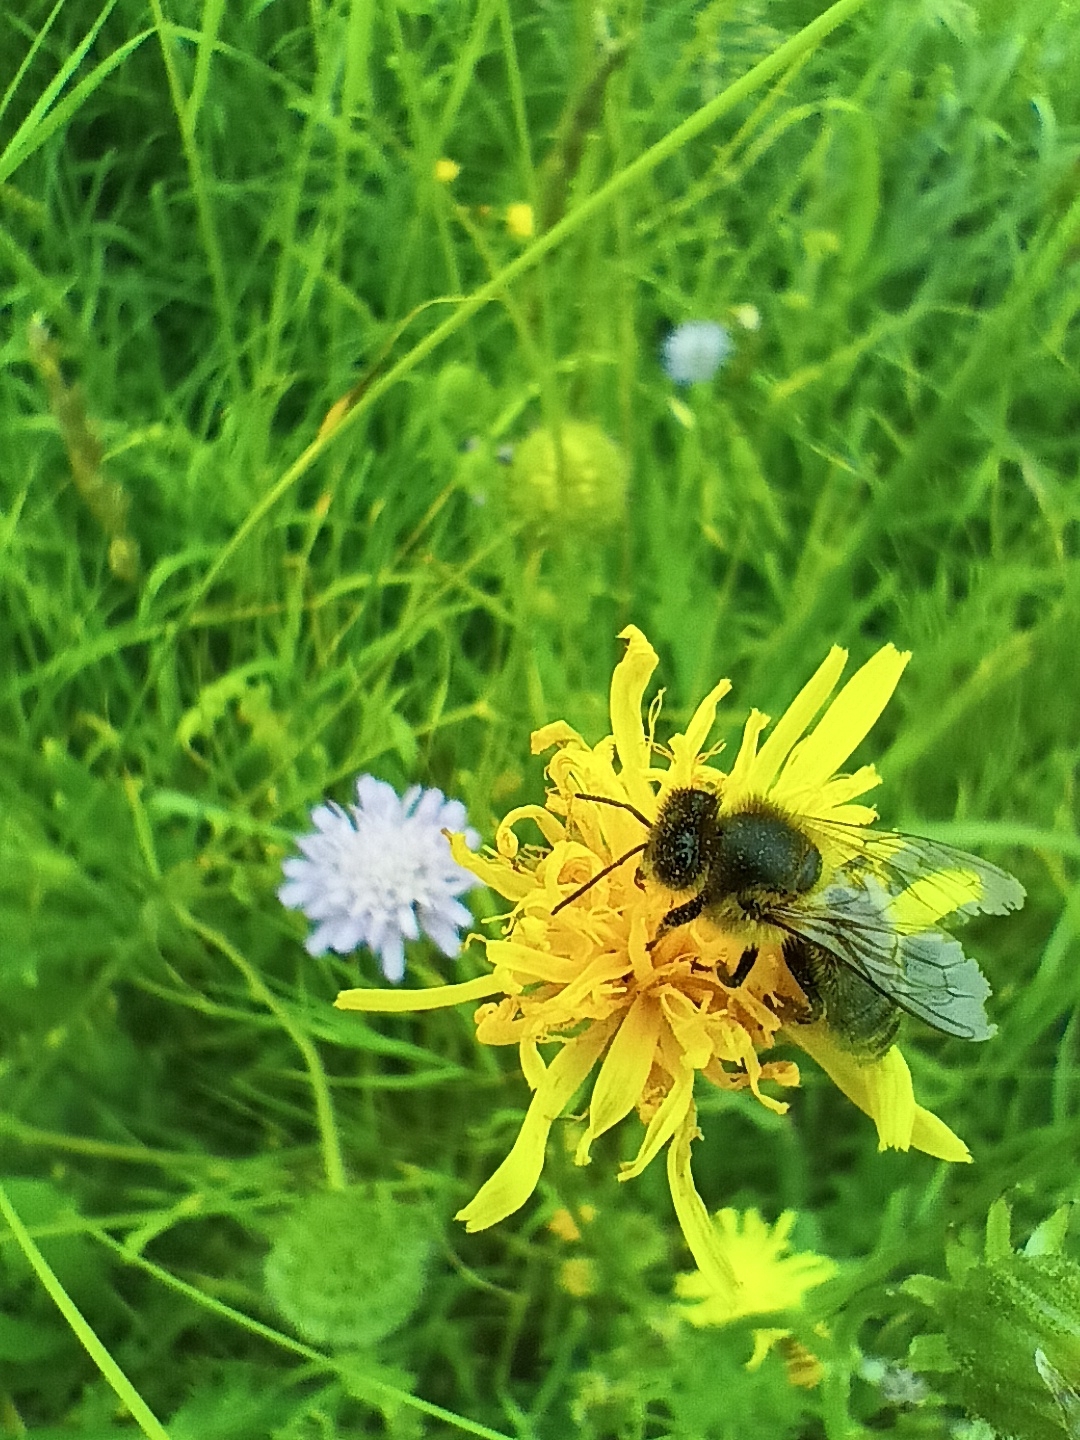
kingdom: Animalia
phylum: Arthropoda
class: Insecta
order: Hymenoptera
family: Apidae
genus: Apis
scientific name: Apis mellifera
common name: Honey bee
